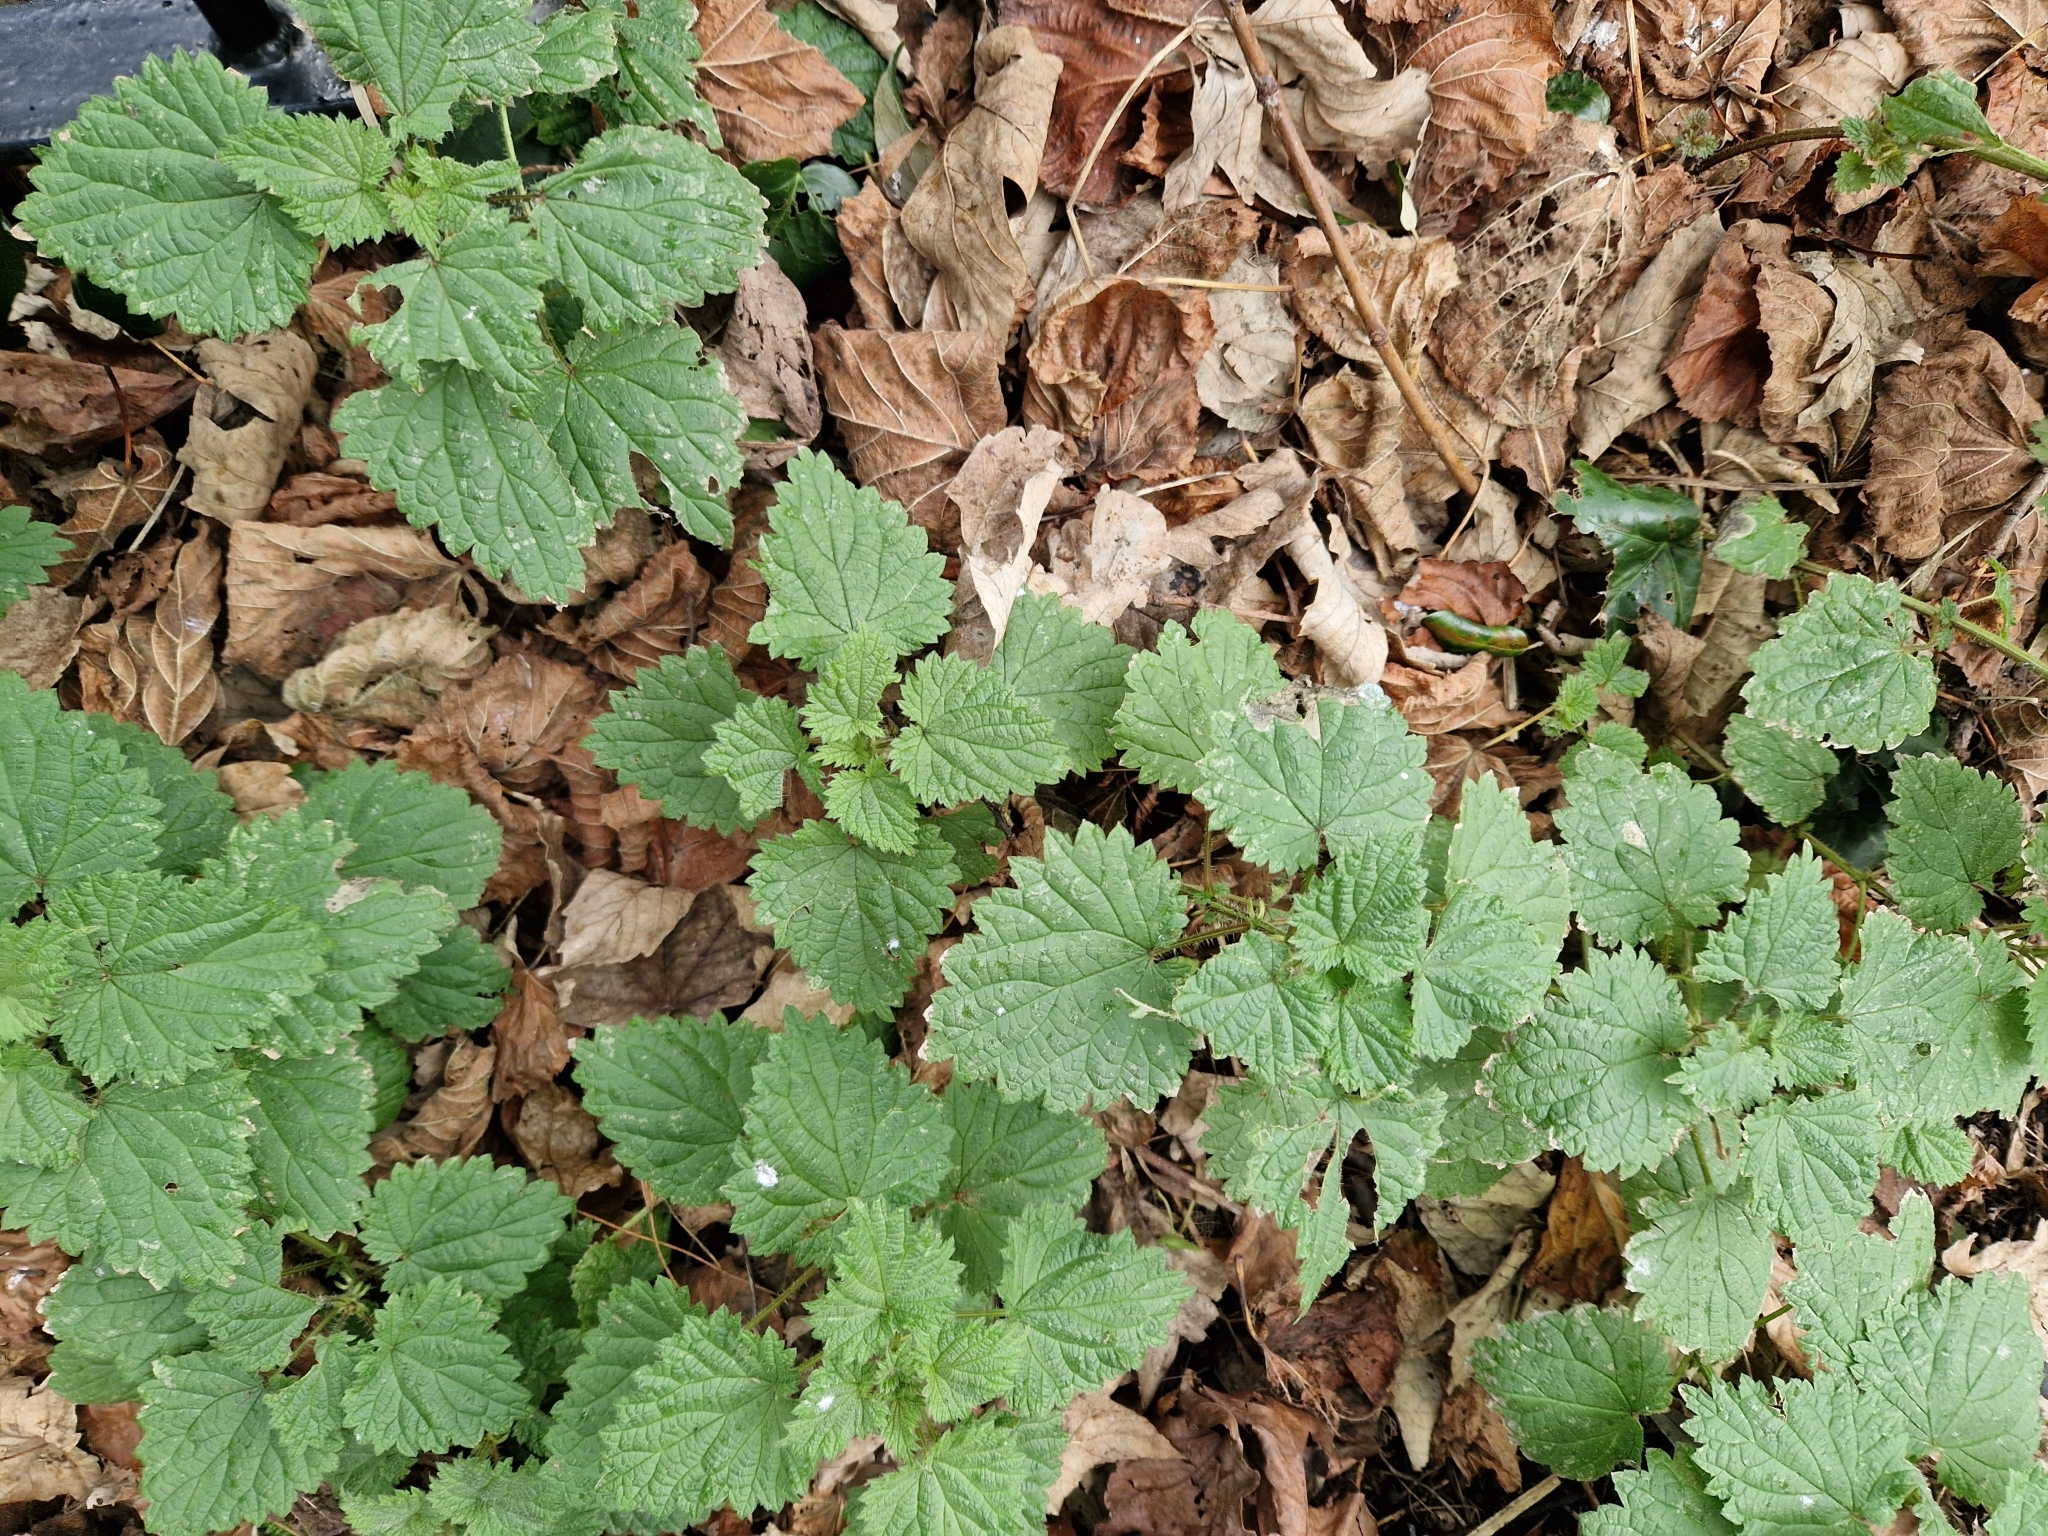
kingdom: Plantae
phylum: Tracheophyta
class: Magnoliopsida
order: Rosales
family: Urticaceae
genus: Urtica
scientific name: Urtica dioica
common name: Common nettle
